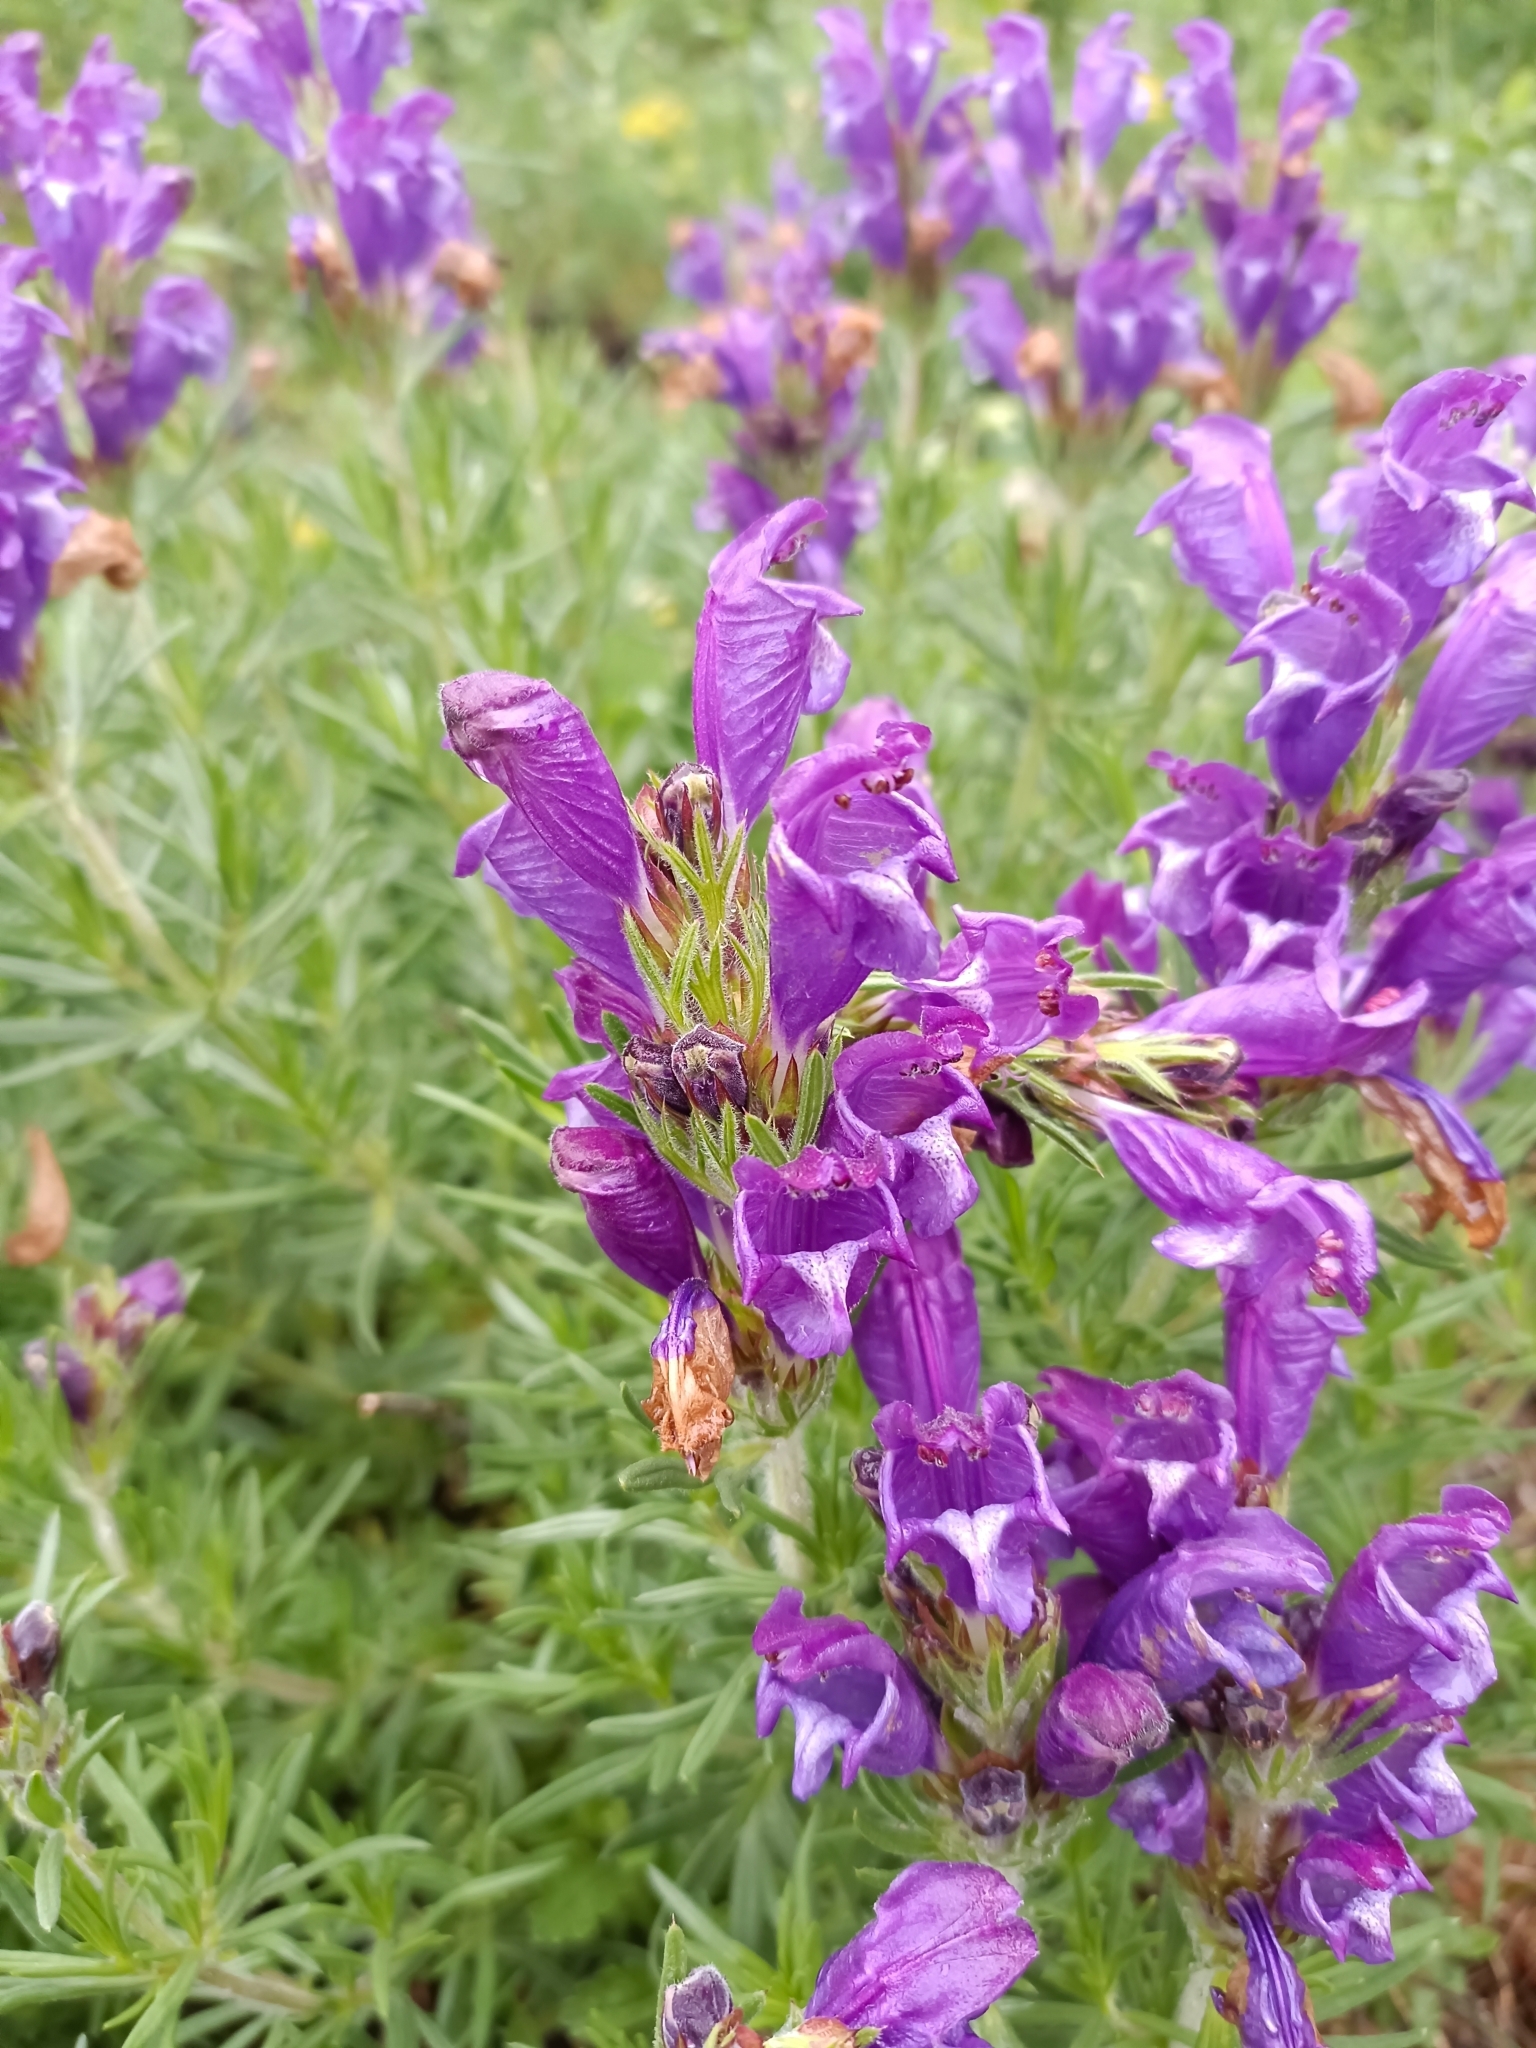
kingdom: Plantae
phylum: Tracheophyta
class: Magnoliopsida
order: Lamiales
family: Lamiaceae
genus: Dracocephalum
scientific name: Dracocephalum austriacum
